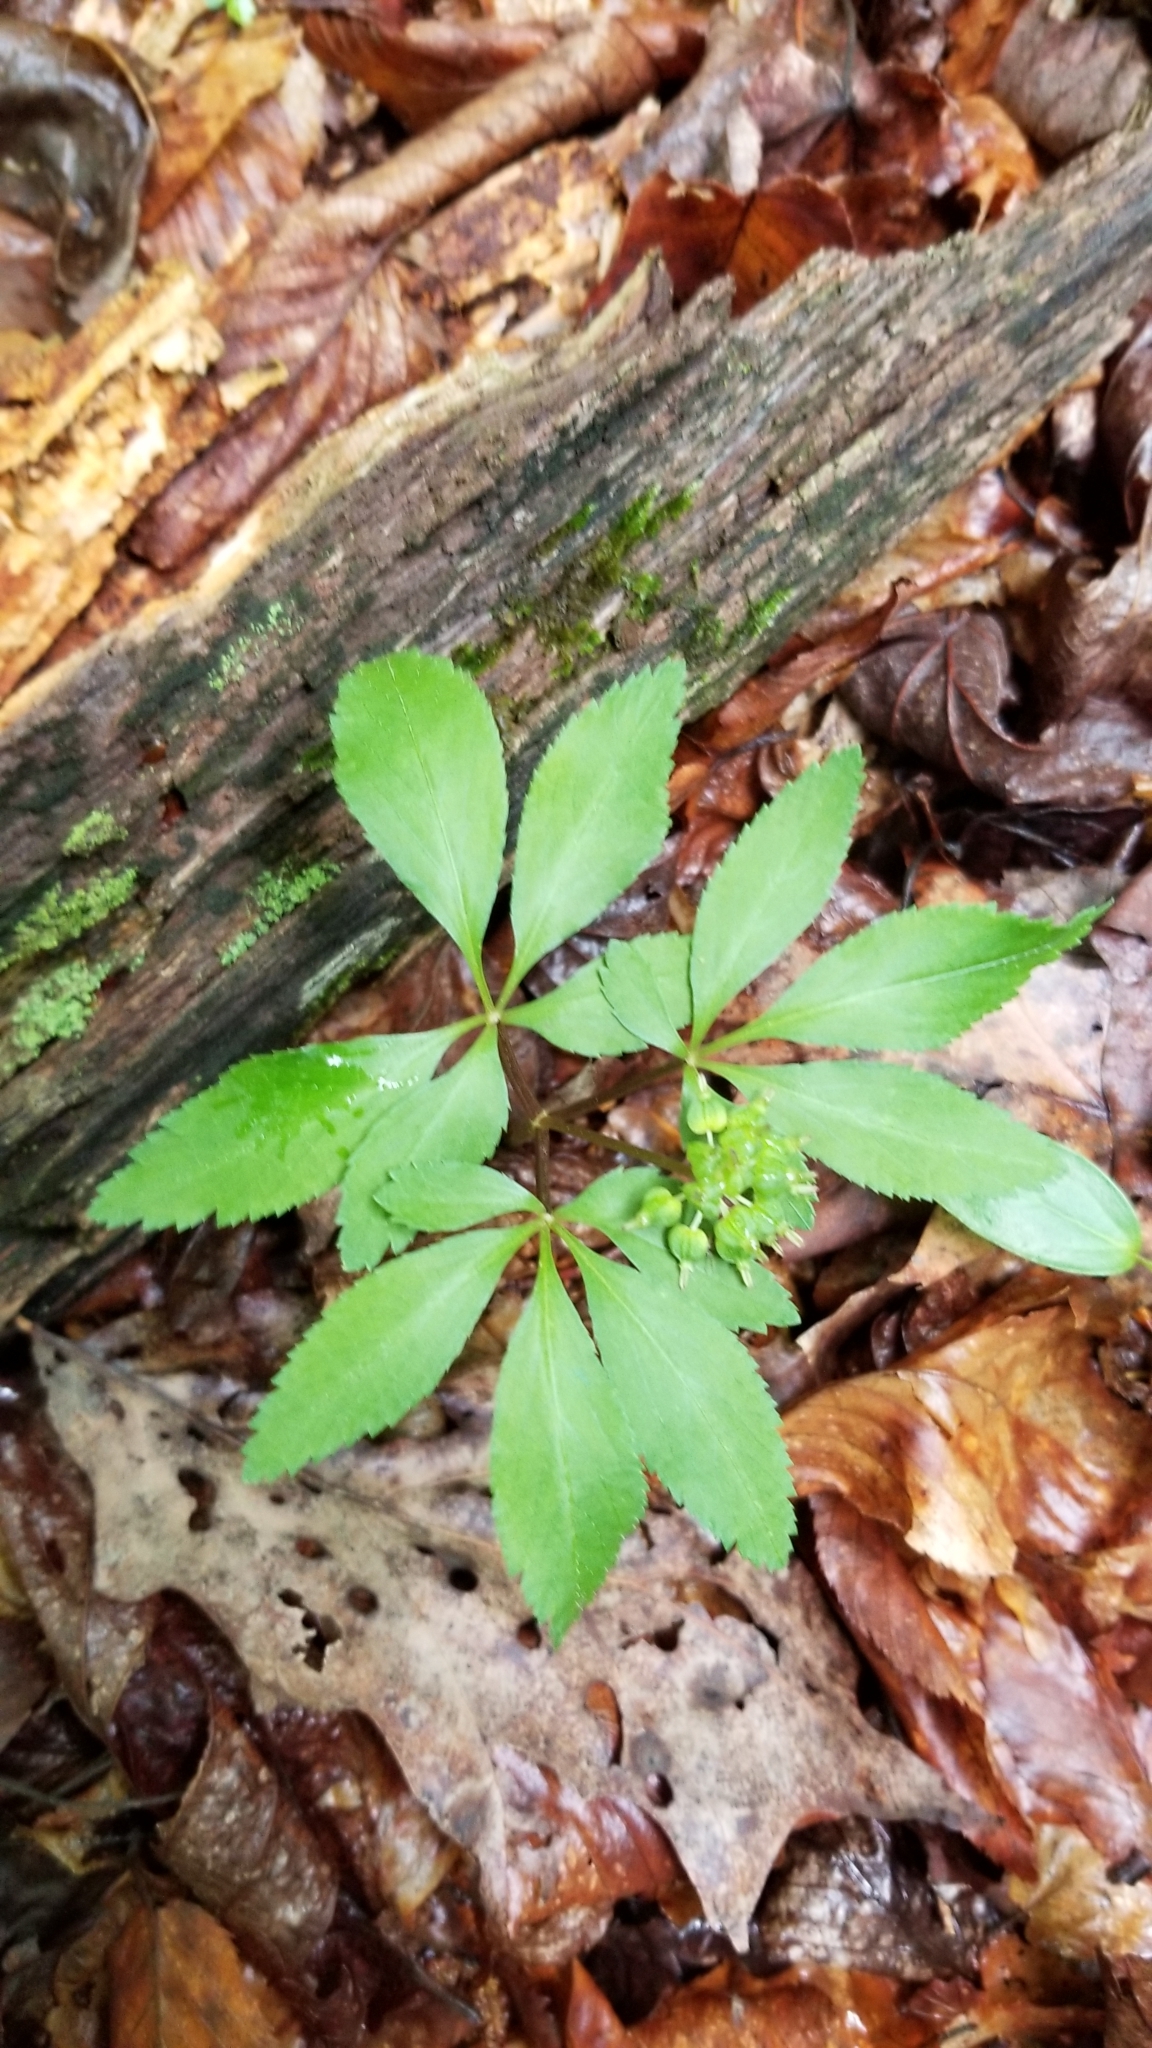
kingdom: Plantae
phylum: Tracheophyta
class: Magnoliopsida
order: Apiales
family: Araliaceae
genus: Panax
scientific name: Panax trifolius
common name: Dwarf ginseng
